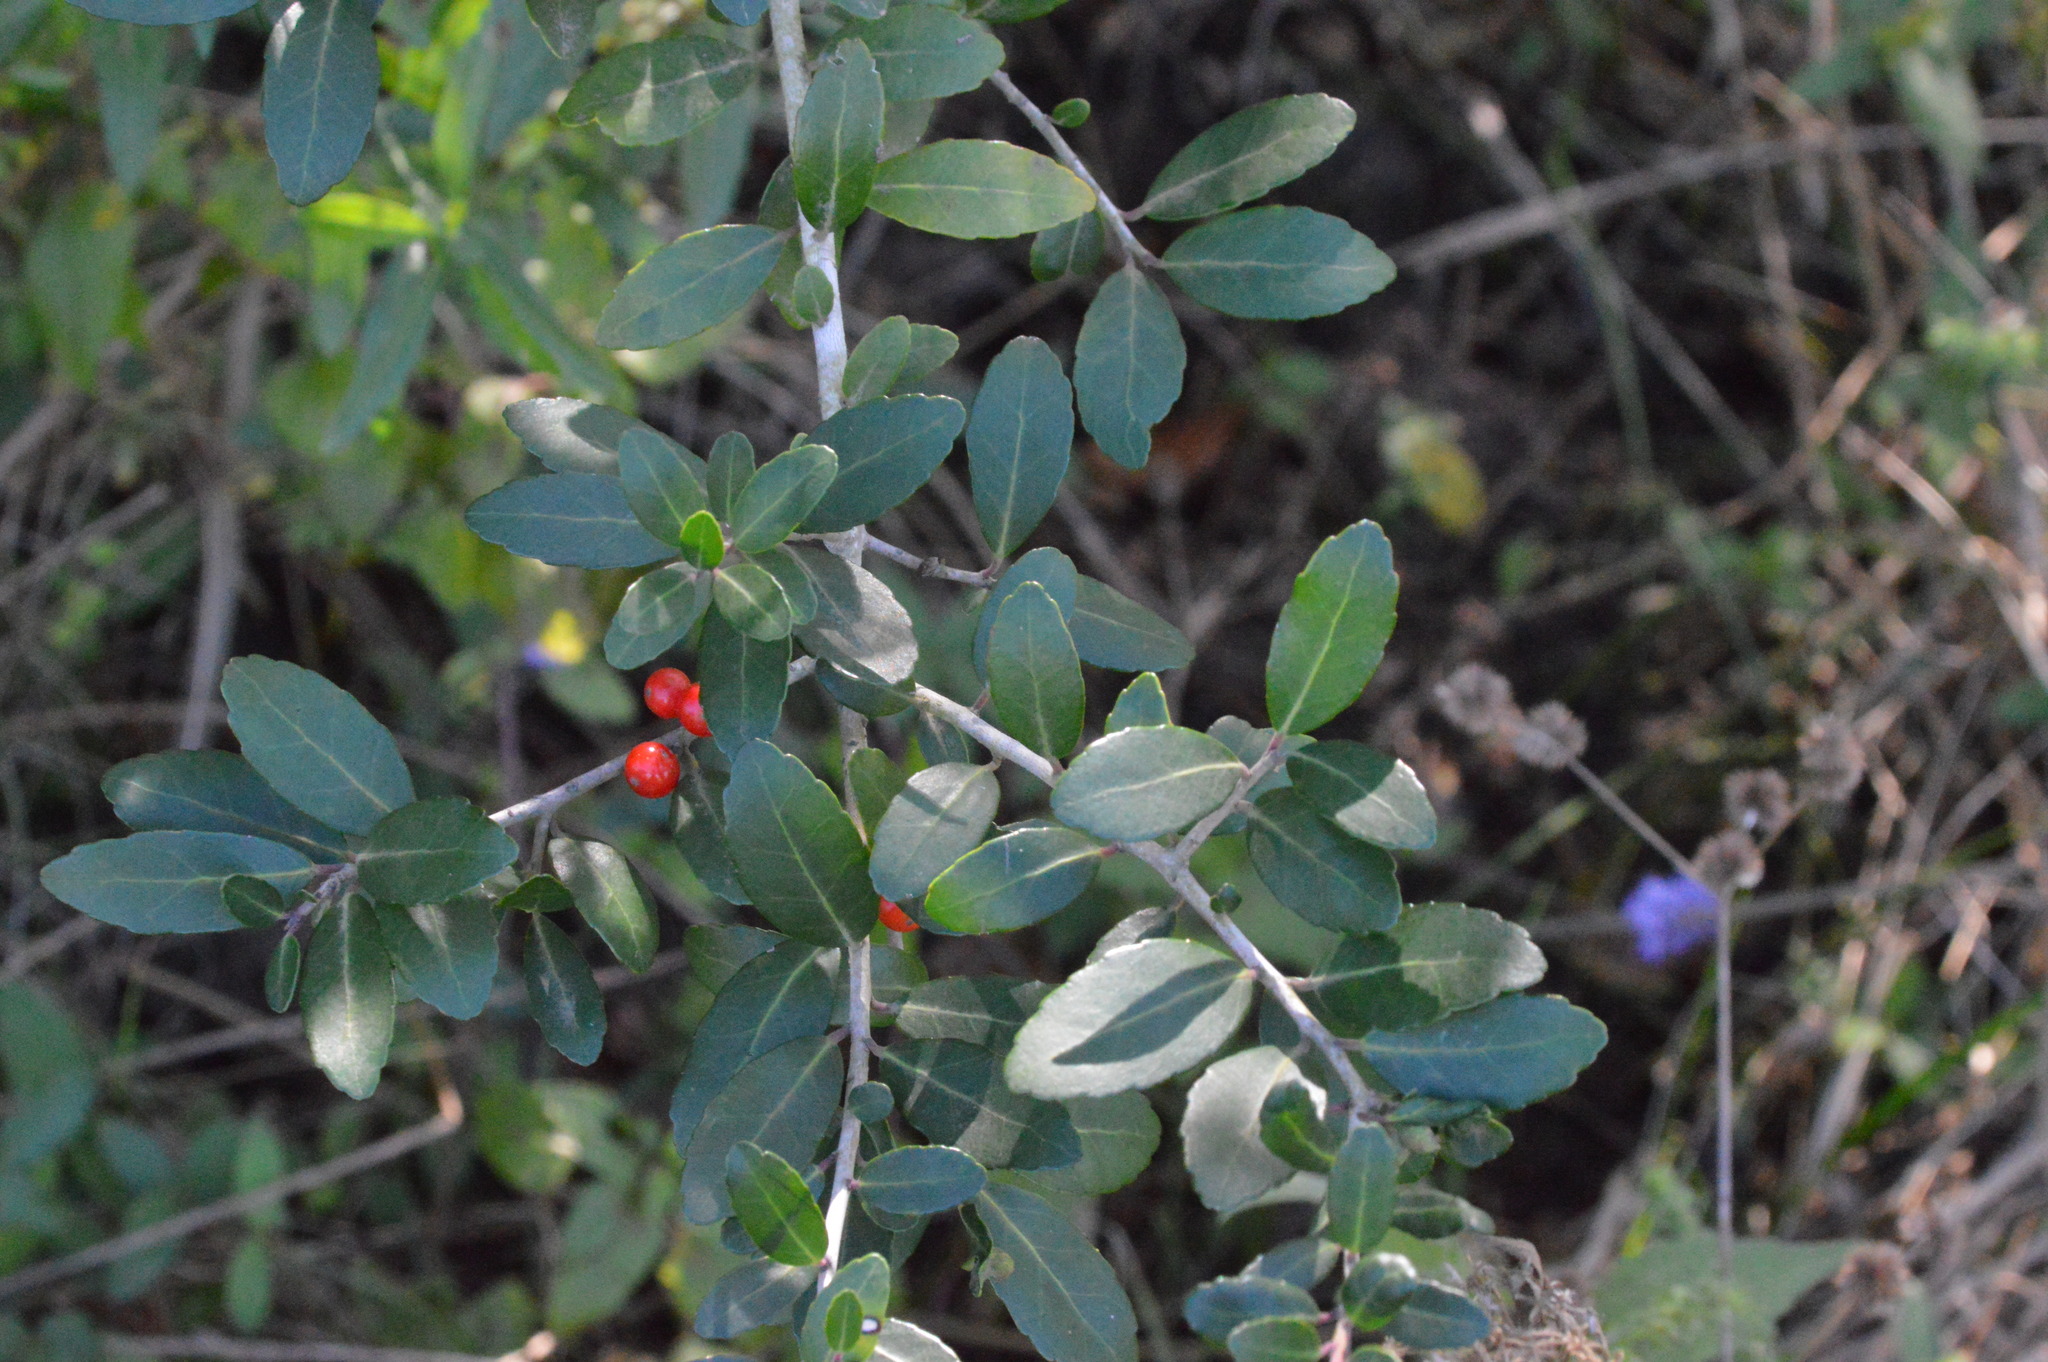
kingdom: Plantae
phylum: Tracheophyta
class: Magnoliopsida
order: Aquifoliales
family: Aquifoliaceae
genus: Ilex
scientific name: Ilex vomitoria
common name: Yaupon holly
